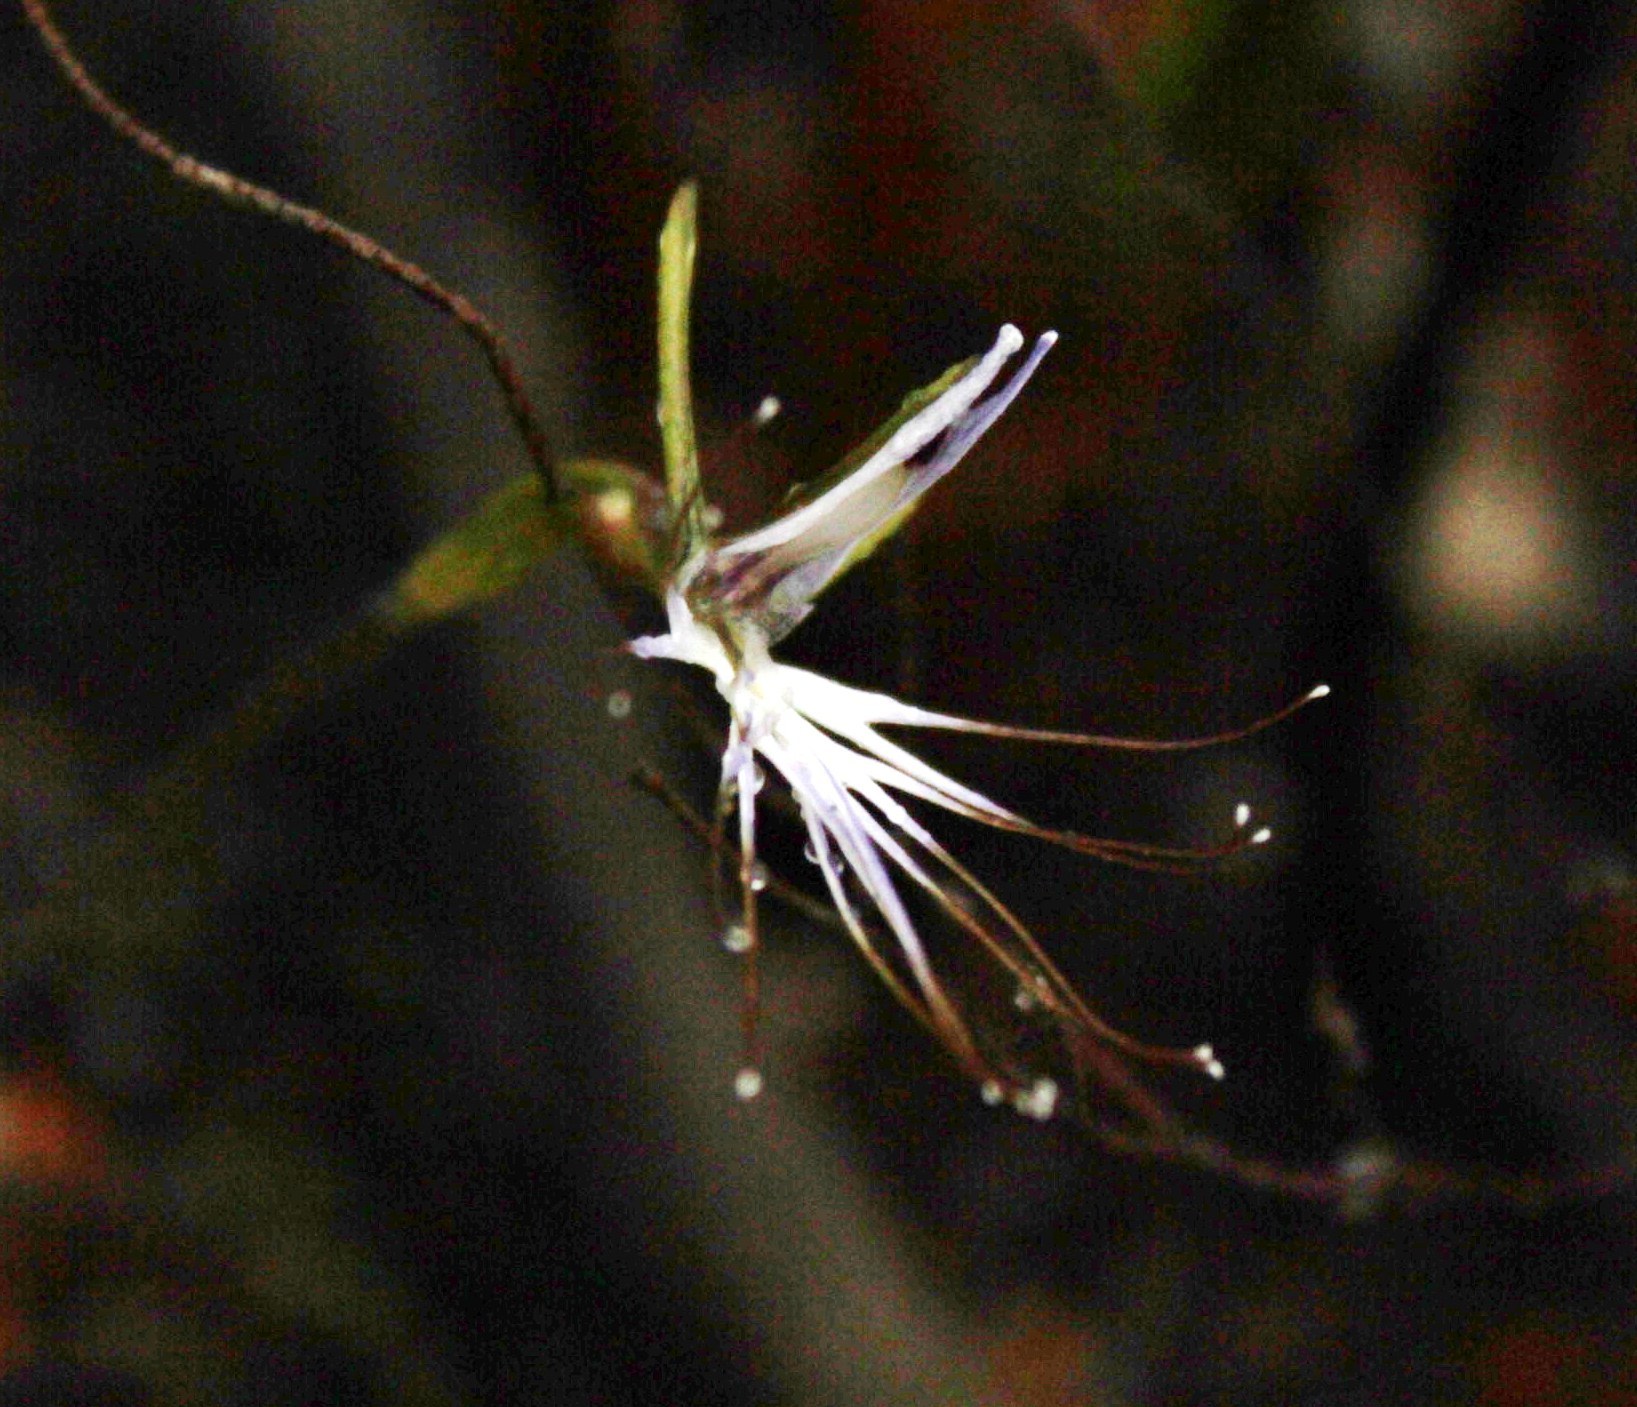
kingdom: Plantae
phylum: Tracheophyta
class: Liliopsida
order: Asparagales
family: Orchidaceae
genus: Holothrix
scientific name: Holothrix etheliae
